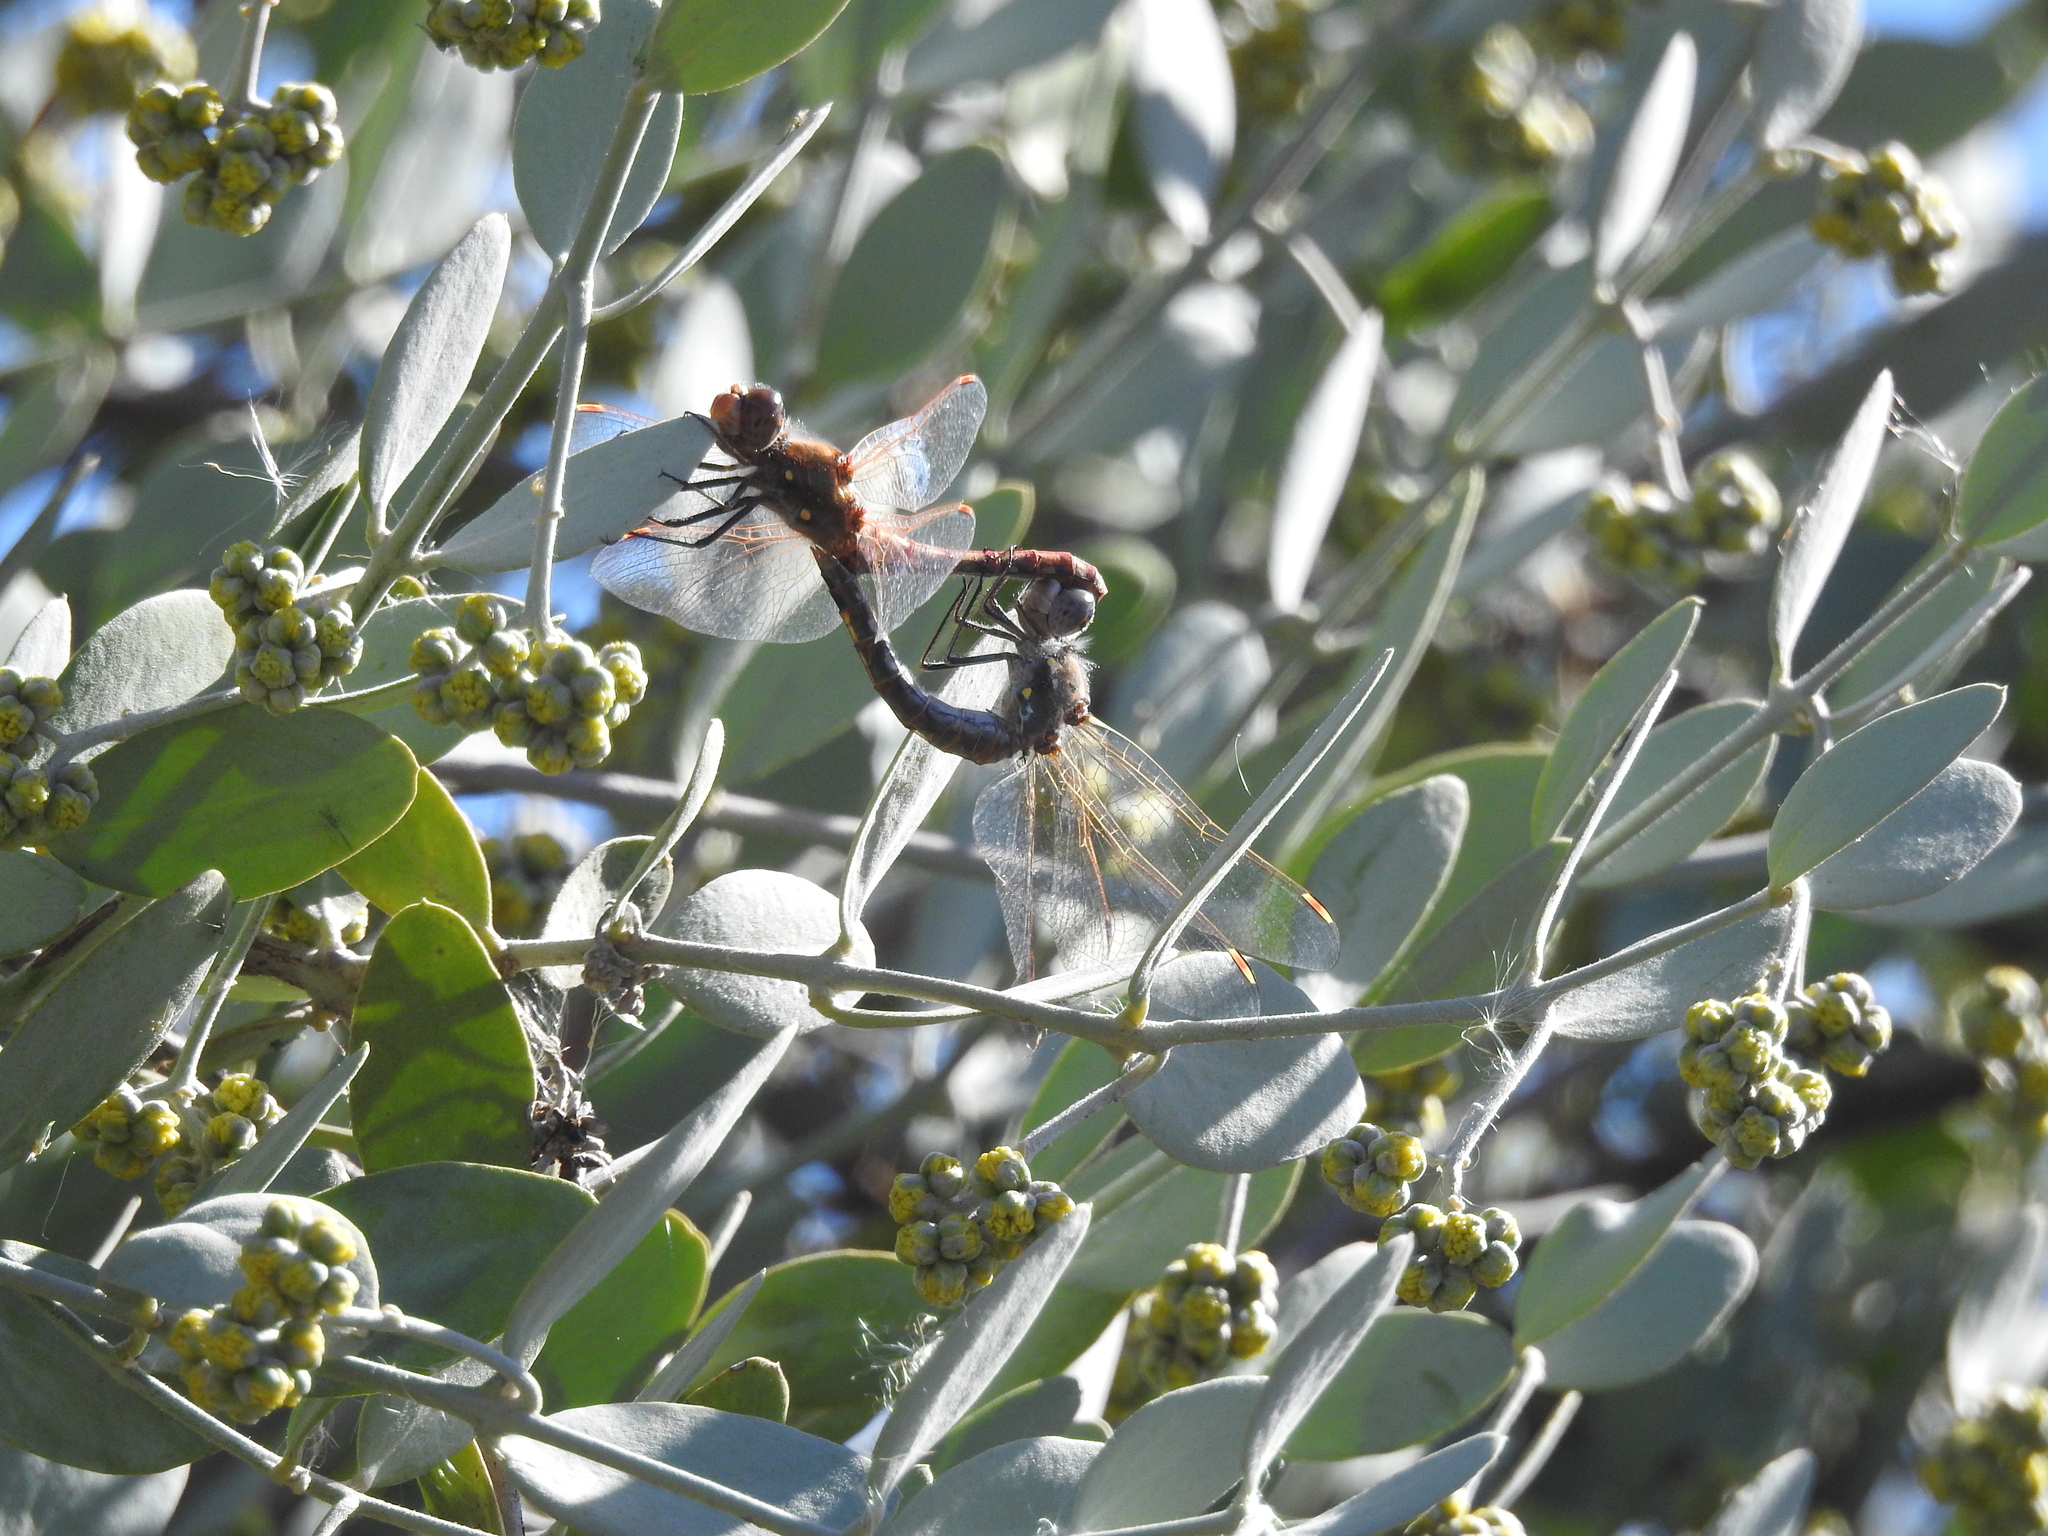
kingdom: Animalia
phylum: Arthropoda
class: Insecta
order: Odonata
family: Libellulidae
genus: Sympetrum
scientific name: Sympetrum corruptum
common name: Variegated meadowhawk
